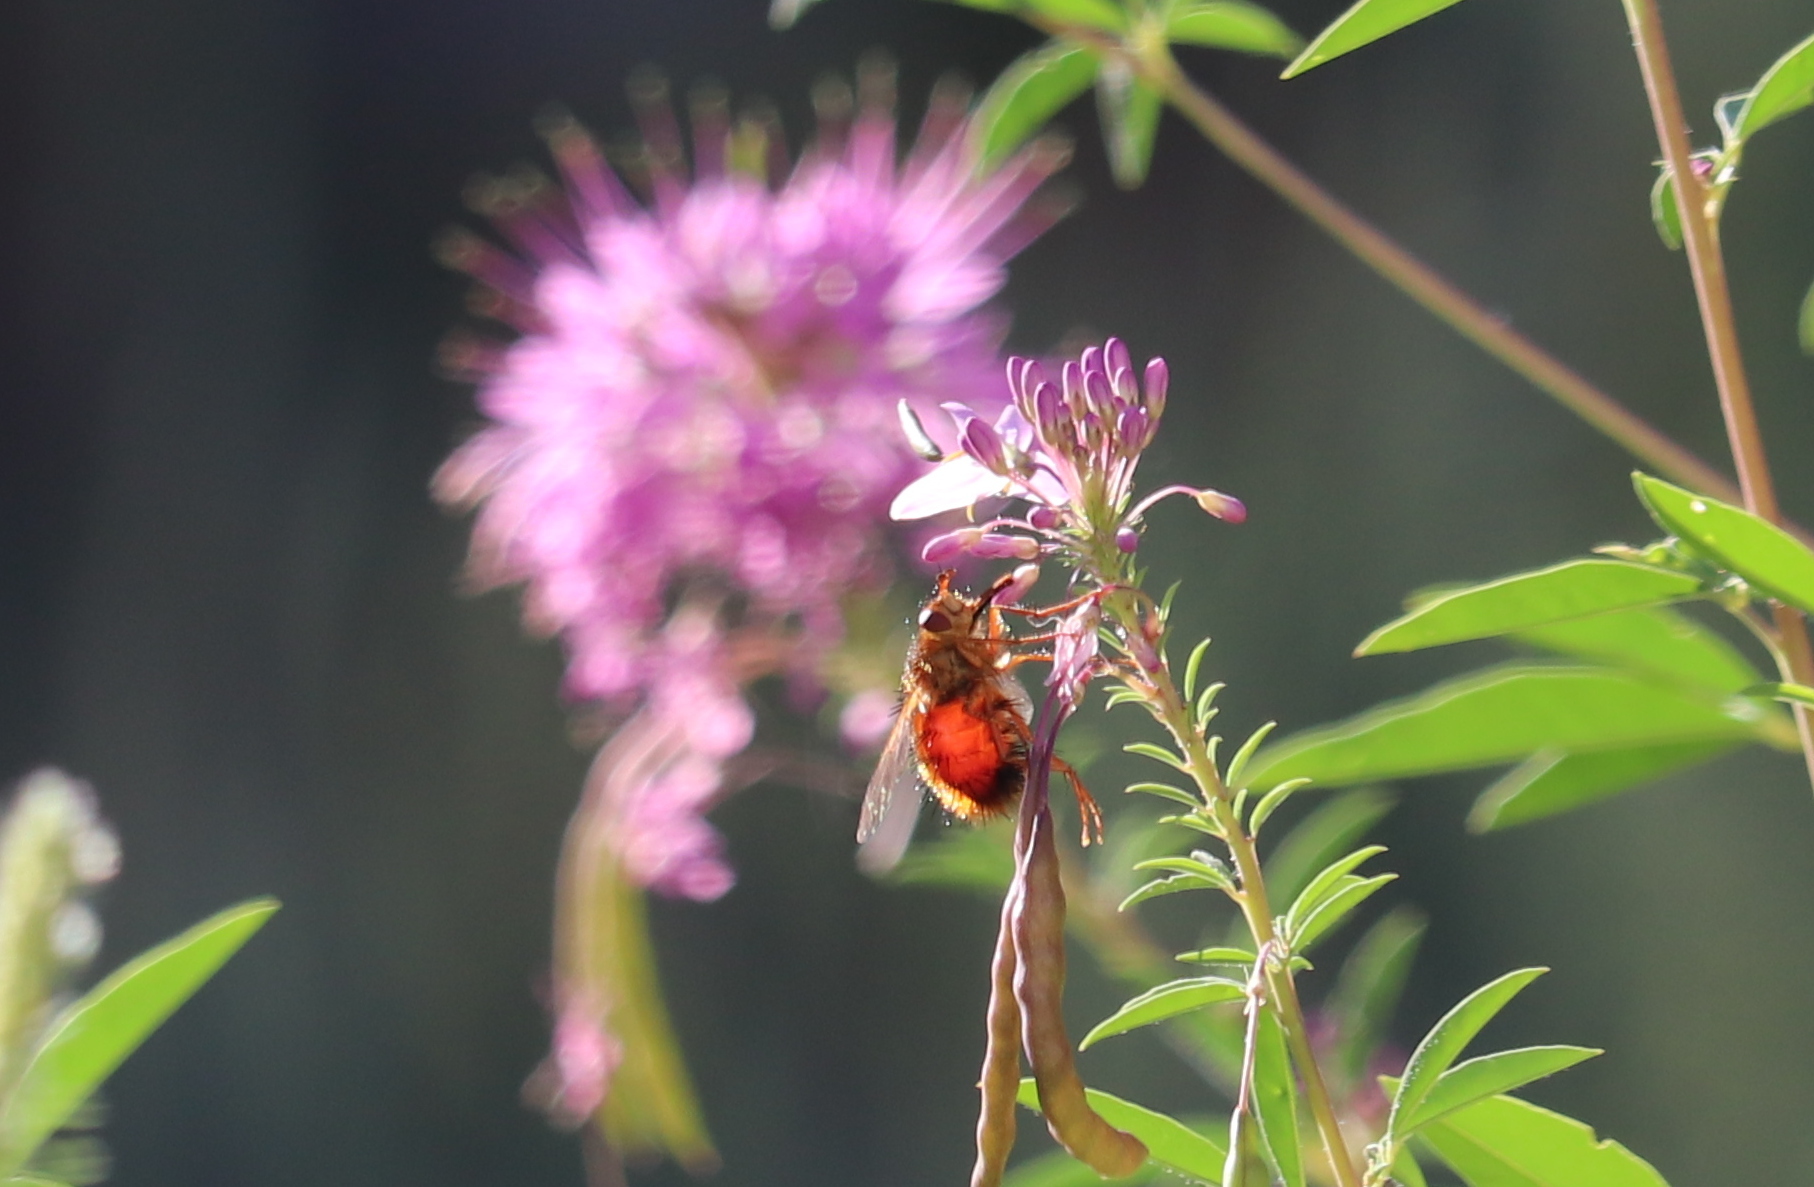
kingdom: Animalia
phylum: Arthropoda
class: Insecta
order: Diptera
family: Tachinidae
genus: Adejeania
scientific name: Adejeania vexatrix
